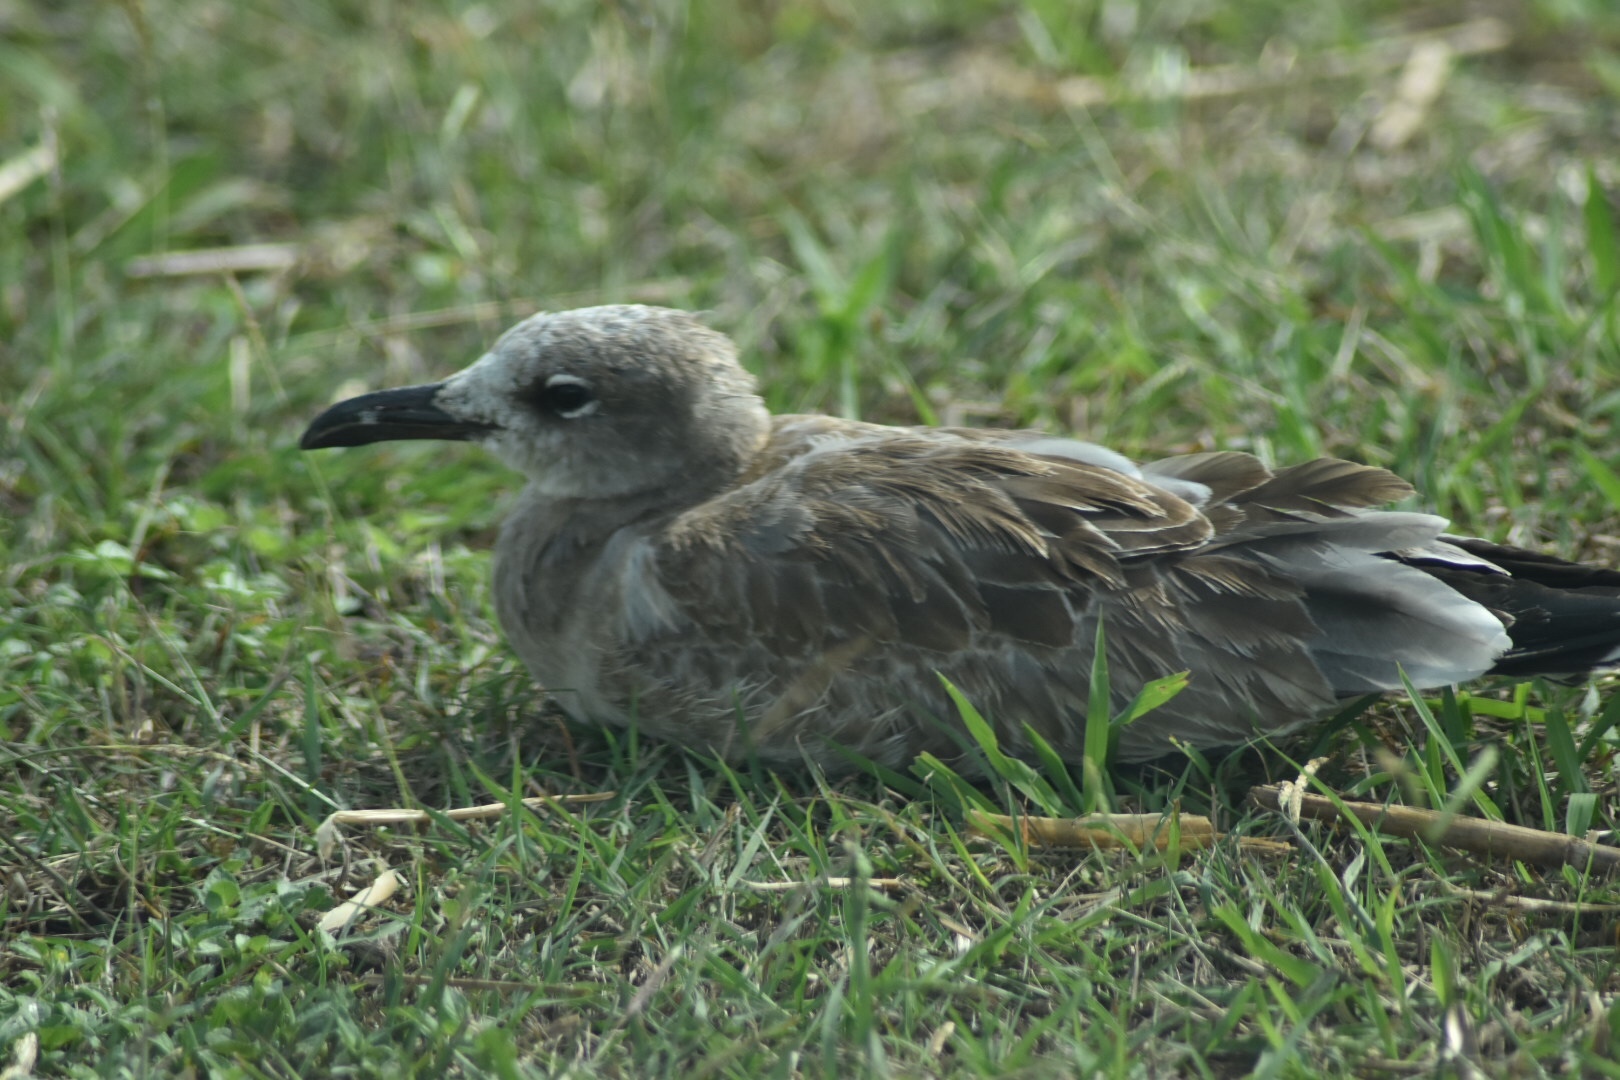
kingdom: Animalia
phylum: Chordata
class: Aves
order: Charadriiformes
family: Laridae
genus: Leucophaeus
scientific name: Leucophaeus atricilla
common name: Laughing gull
